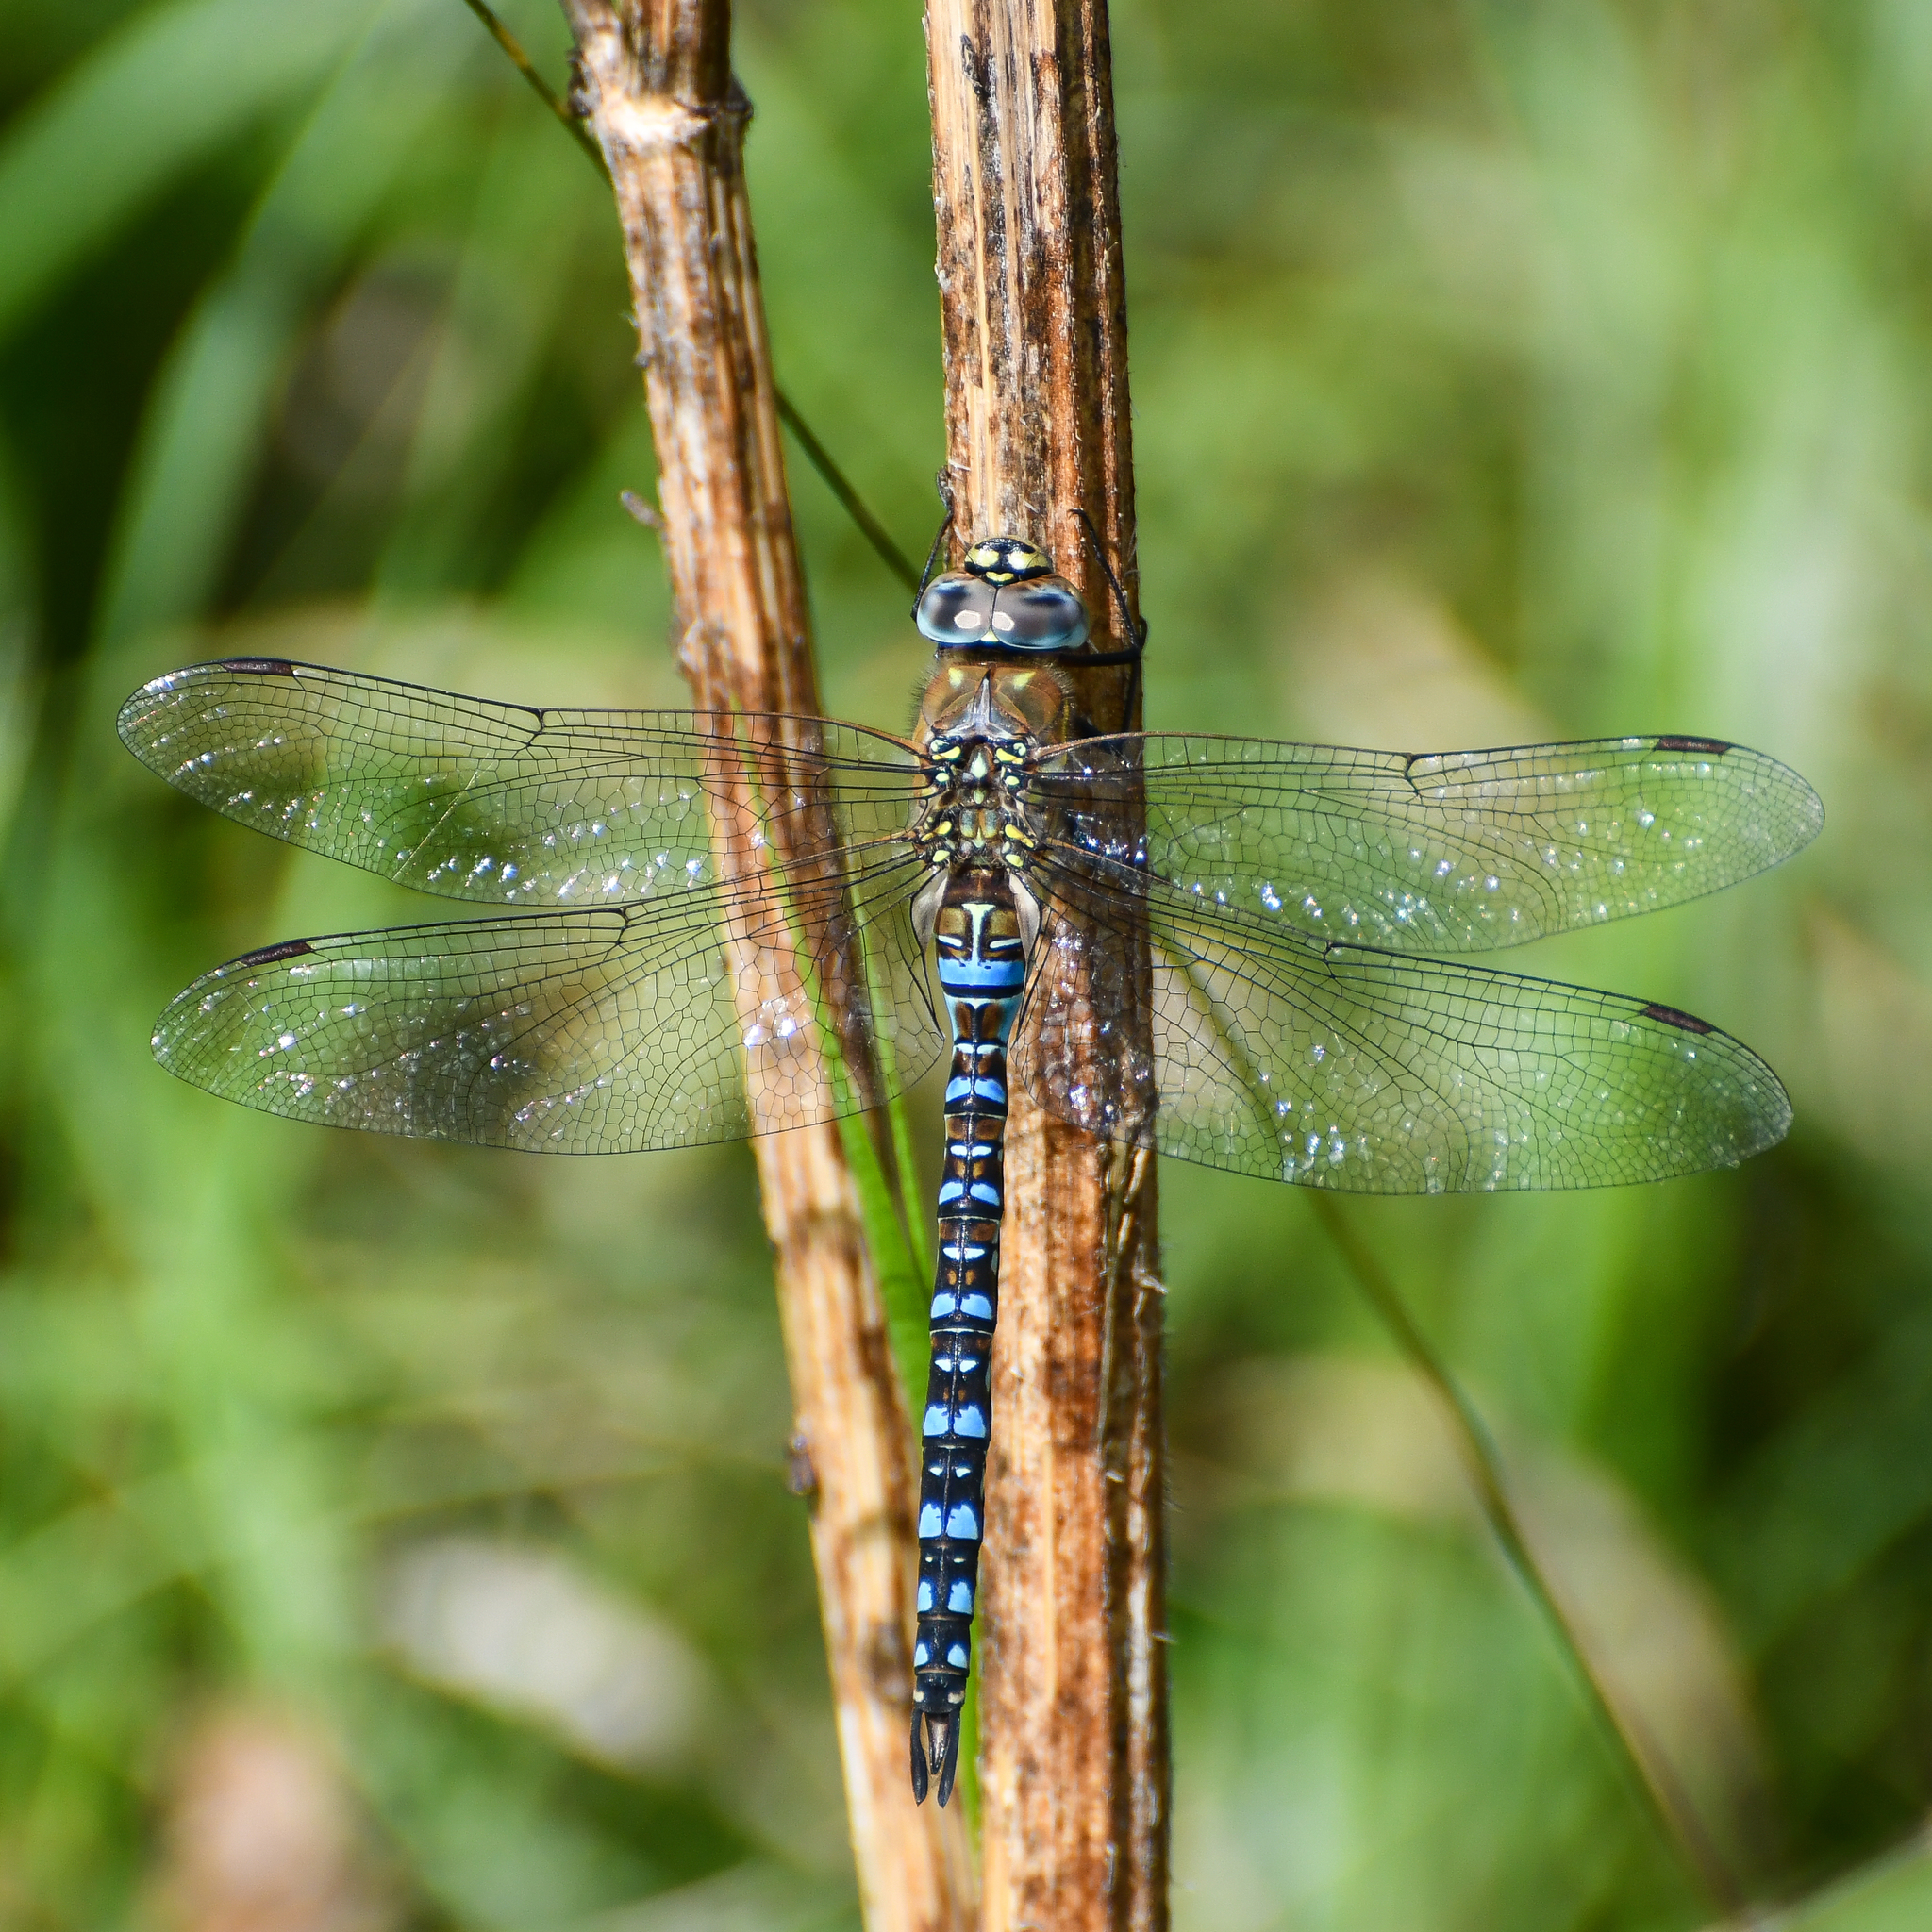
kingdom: Animalia
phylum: Arthropoda
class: Insecta
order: Odonata
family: Aeshnidae
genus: Aeshna
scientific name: Aeshna mixta
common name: Migrant hawker
